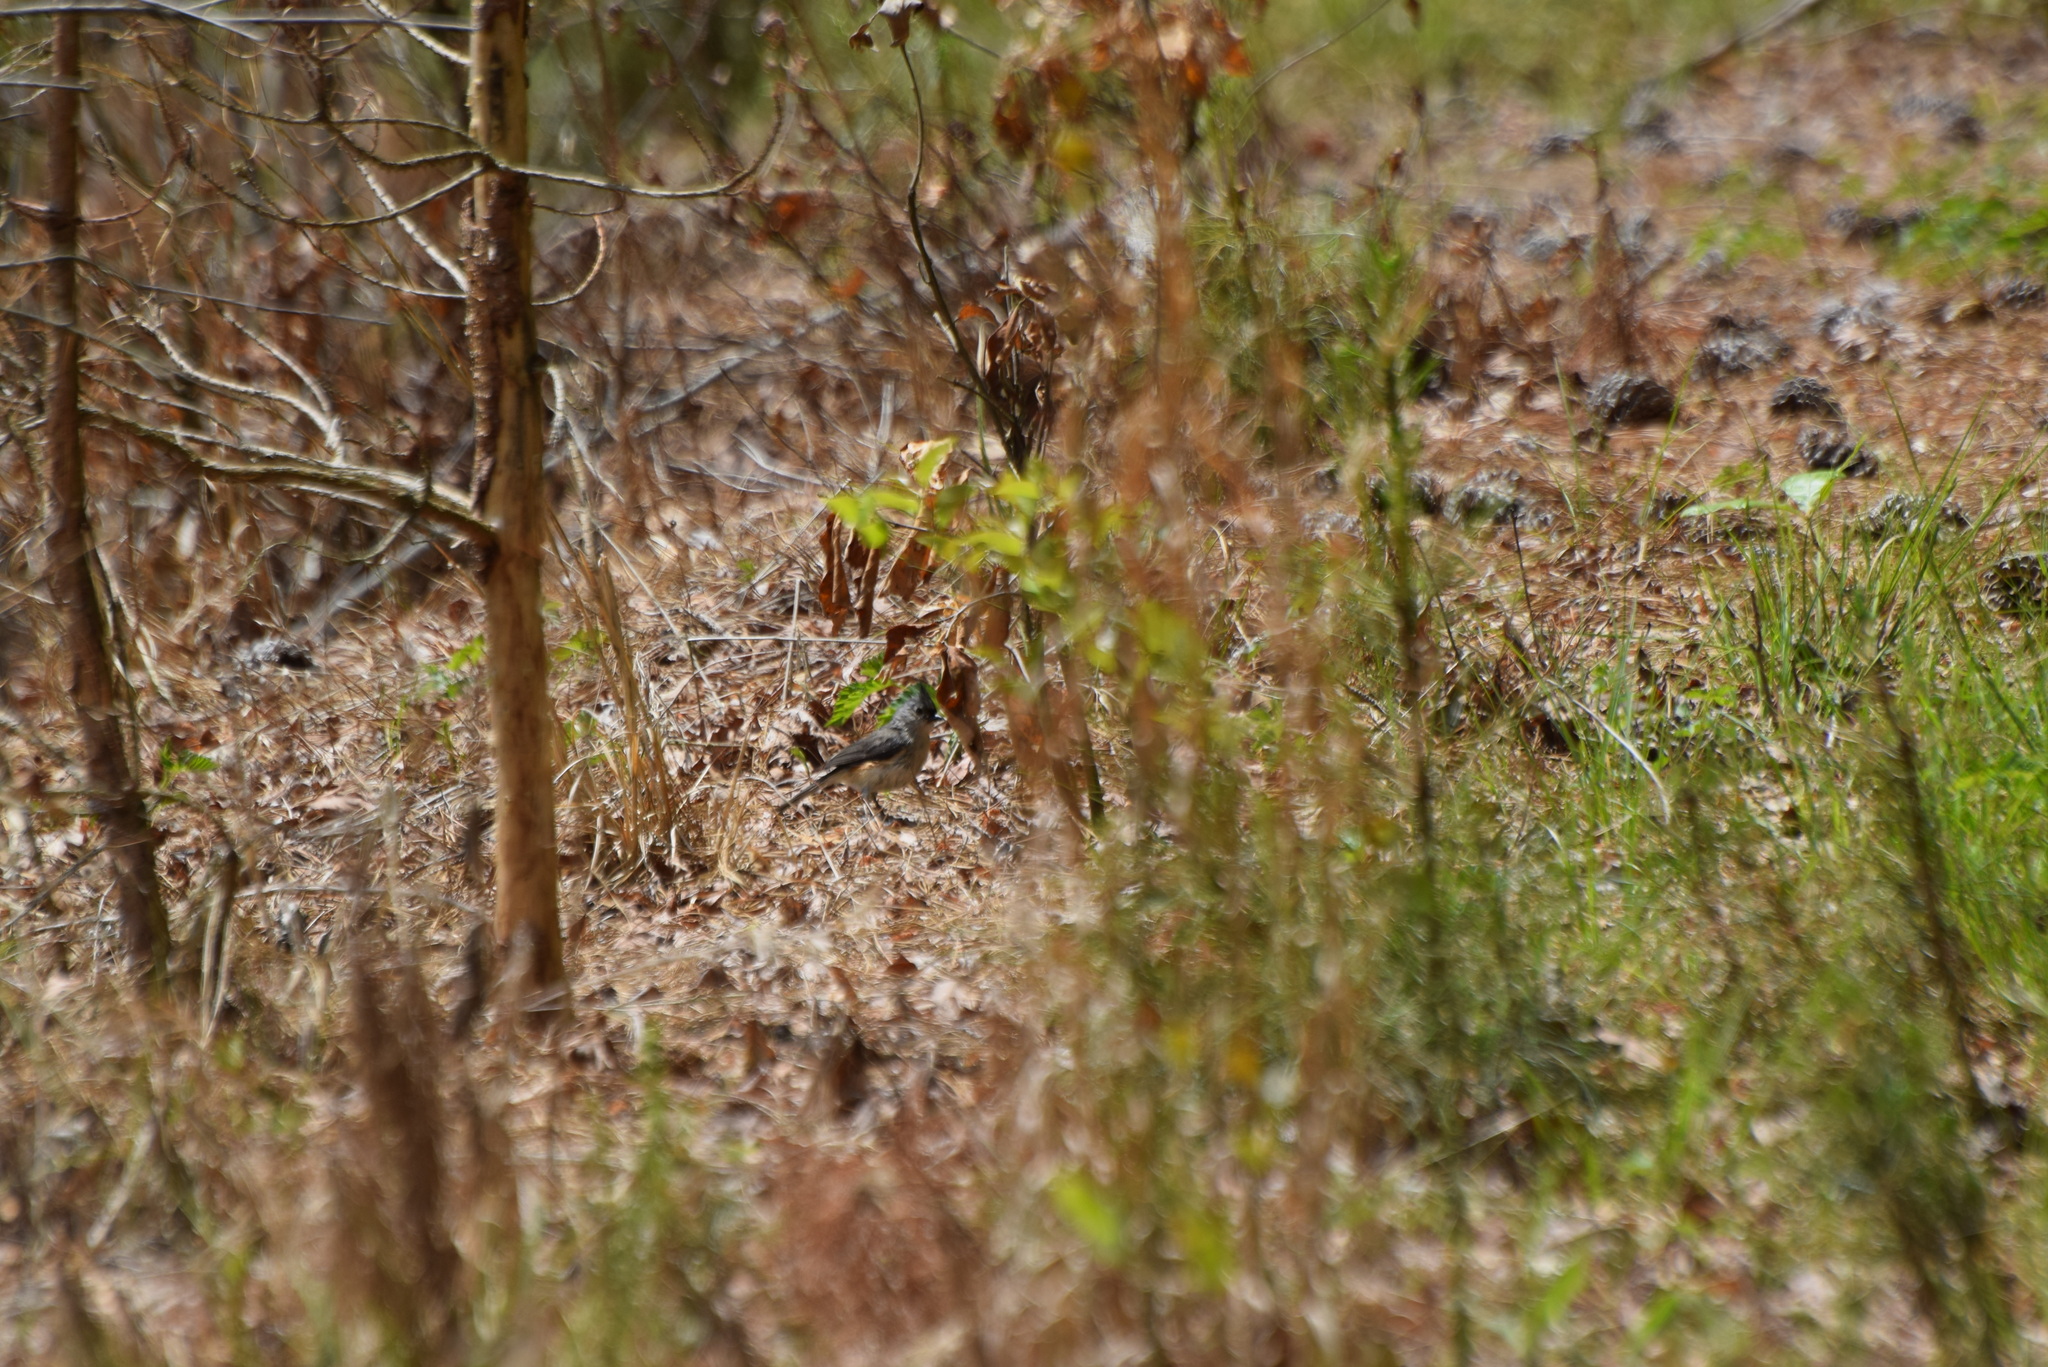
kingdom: Animalia
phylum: Chordata
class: Aves
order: Passeriformes
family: Paridae
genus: Baeolophus
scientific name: Baeolophus bicolor
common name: Tufted titmouse
